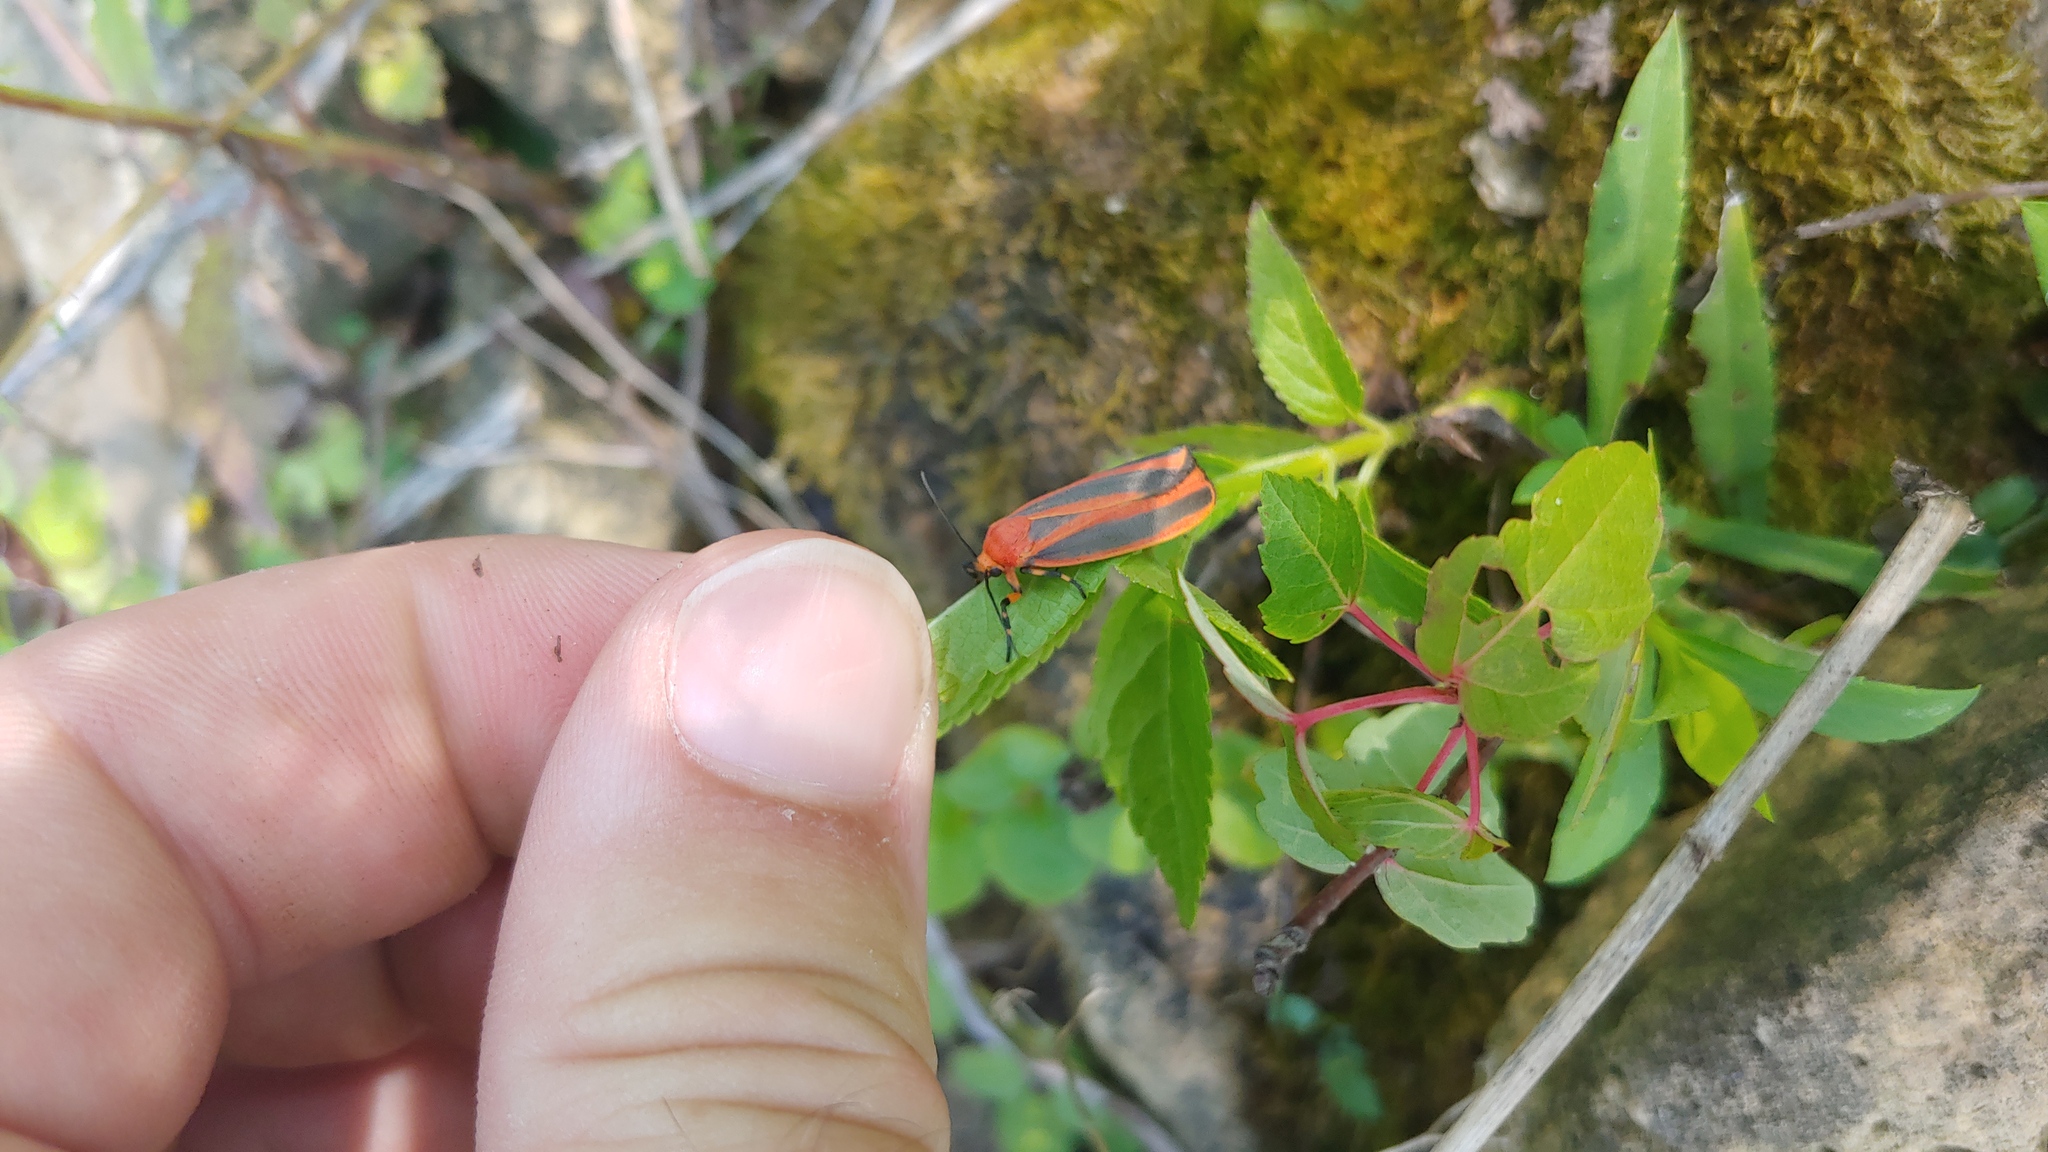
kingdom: Animalia
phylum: Arthropoda
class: Insecta
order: Lepidoptera
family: Erebidae
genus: Hypoprepia
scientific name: Hypoprepia miniata
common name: Scarlet-winged lichen moth
